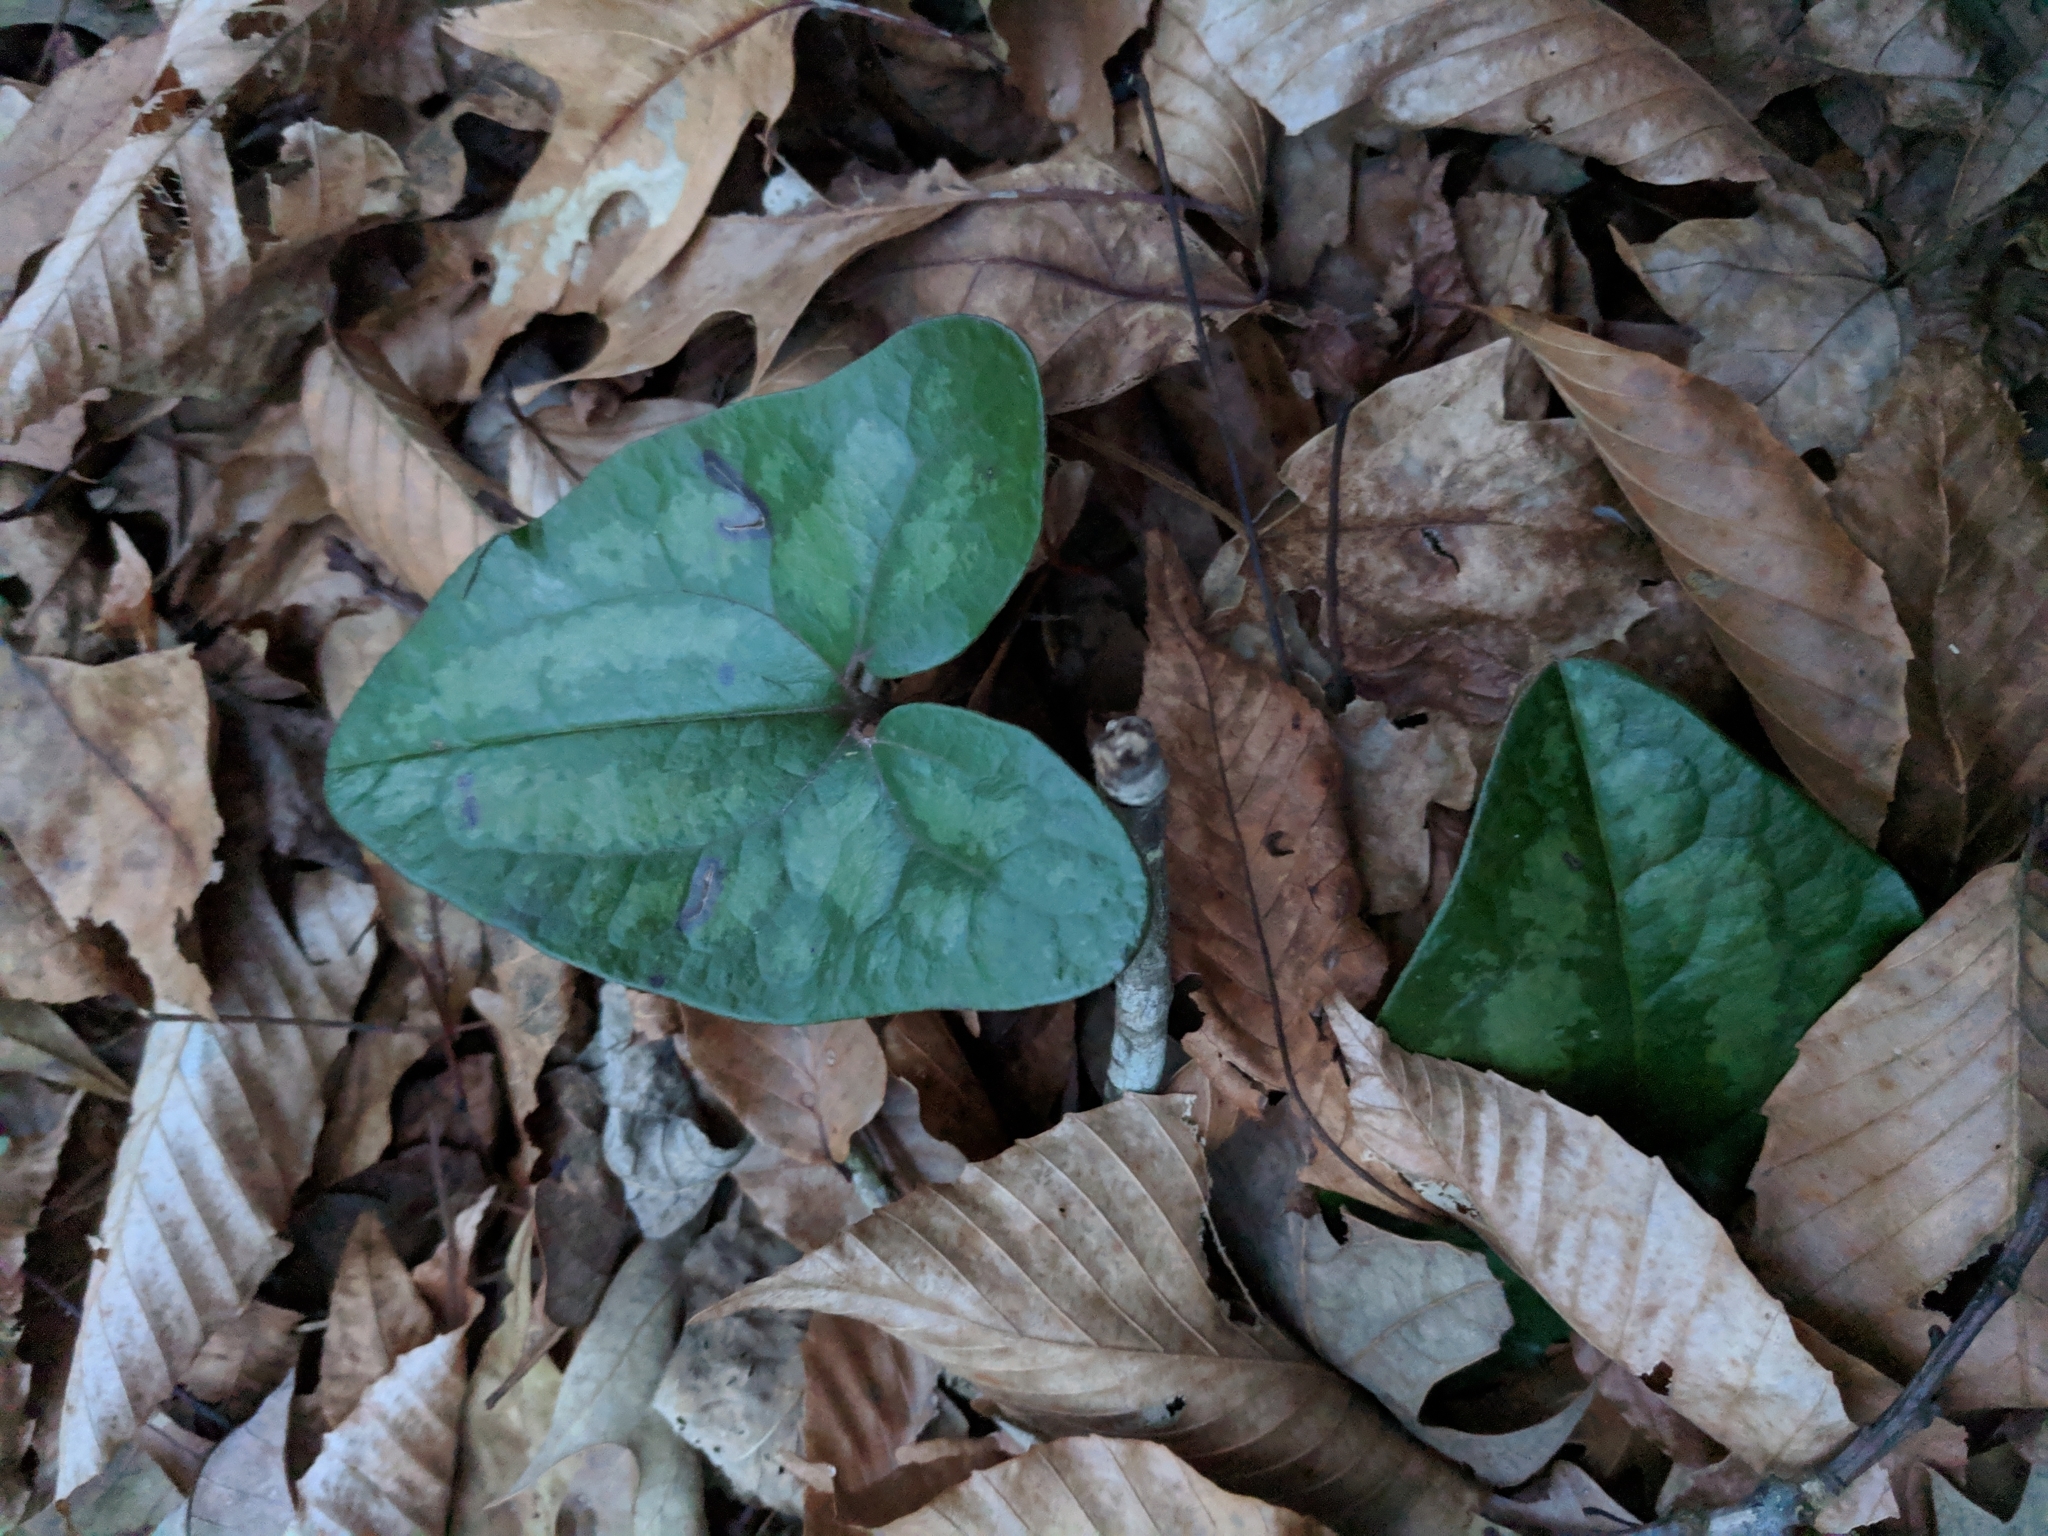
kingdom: Plantae
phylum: Tracheophyta
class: Magnoliopsida
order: Piperales
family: Aristolochiaceae
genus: Hexastylis
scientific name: Hexastylis arifolia
